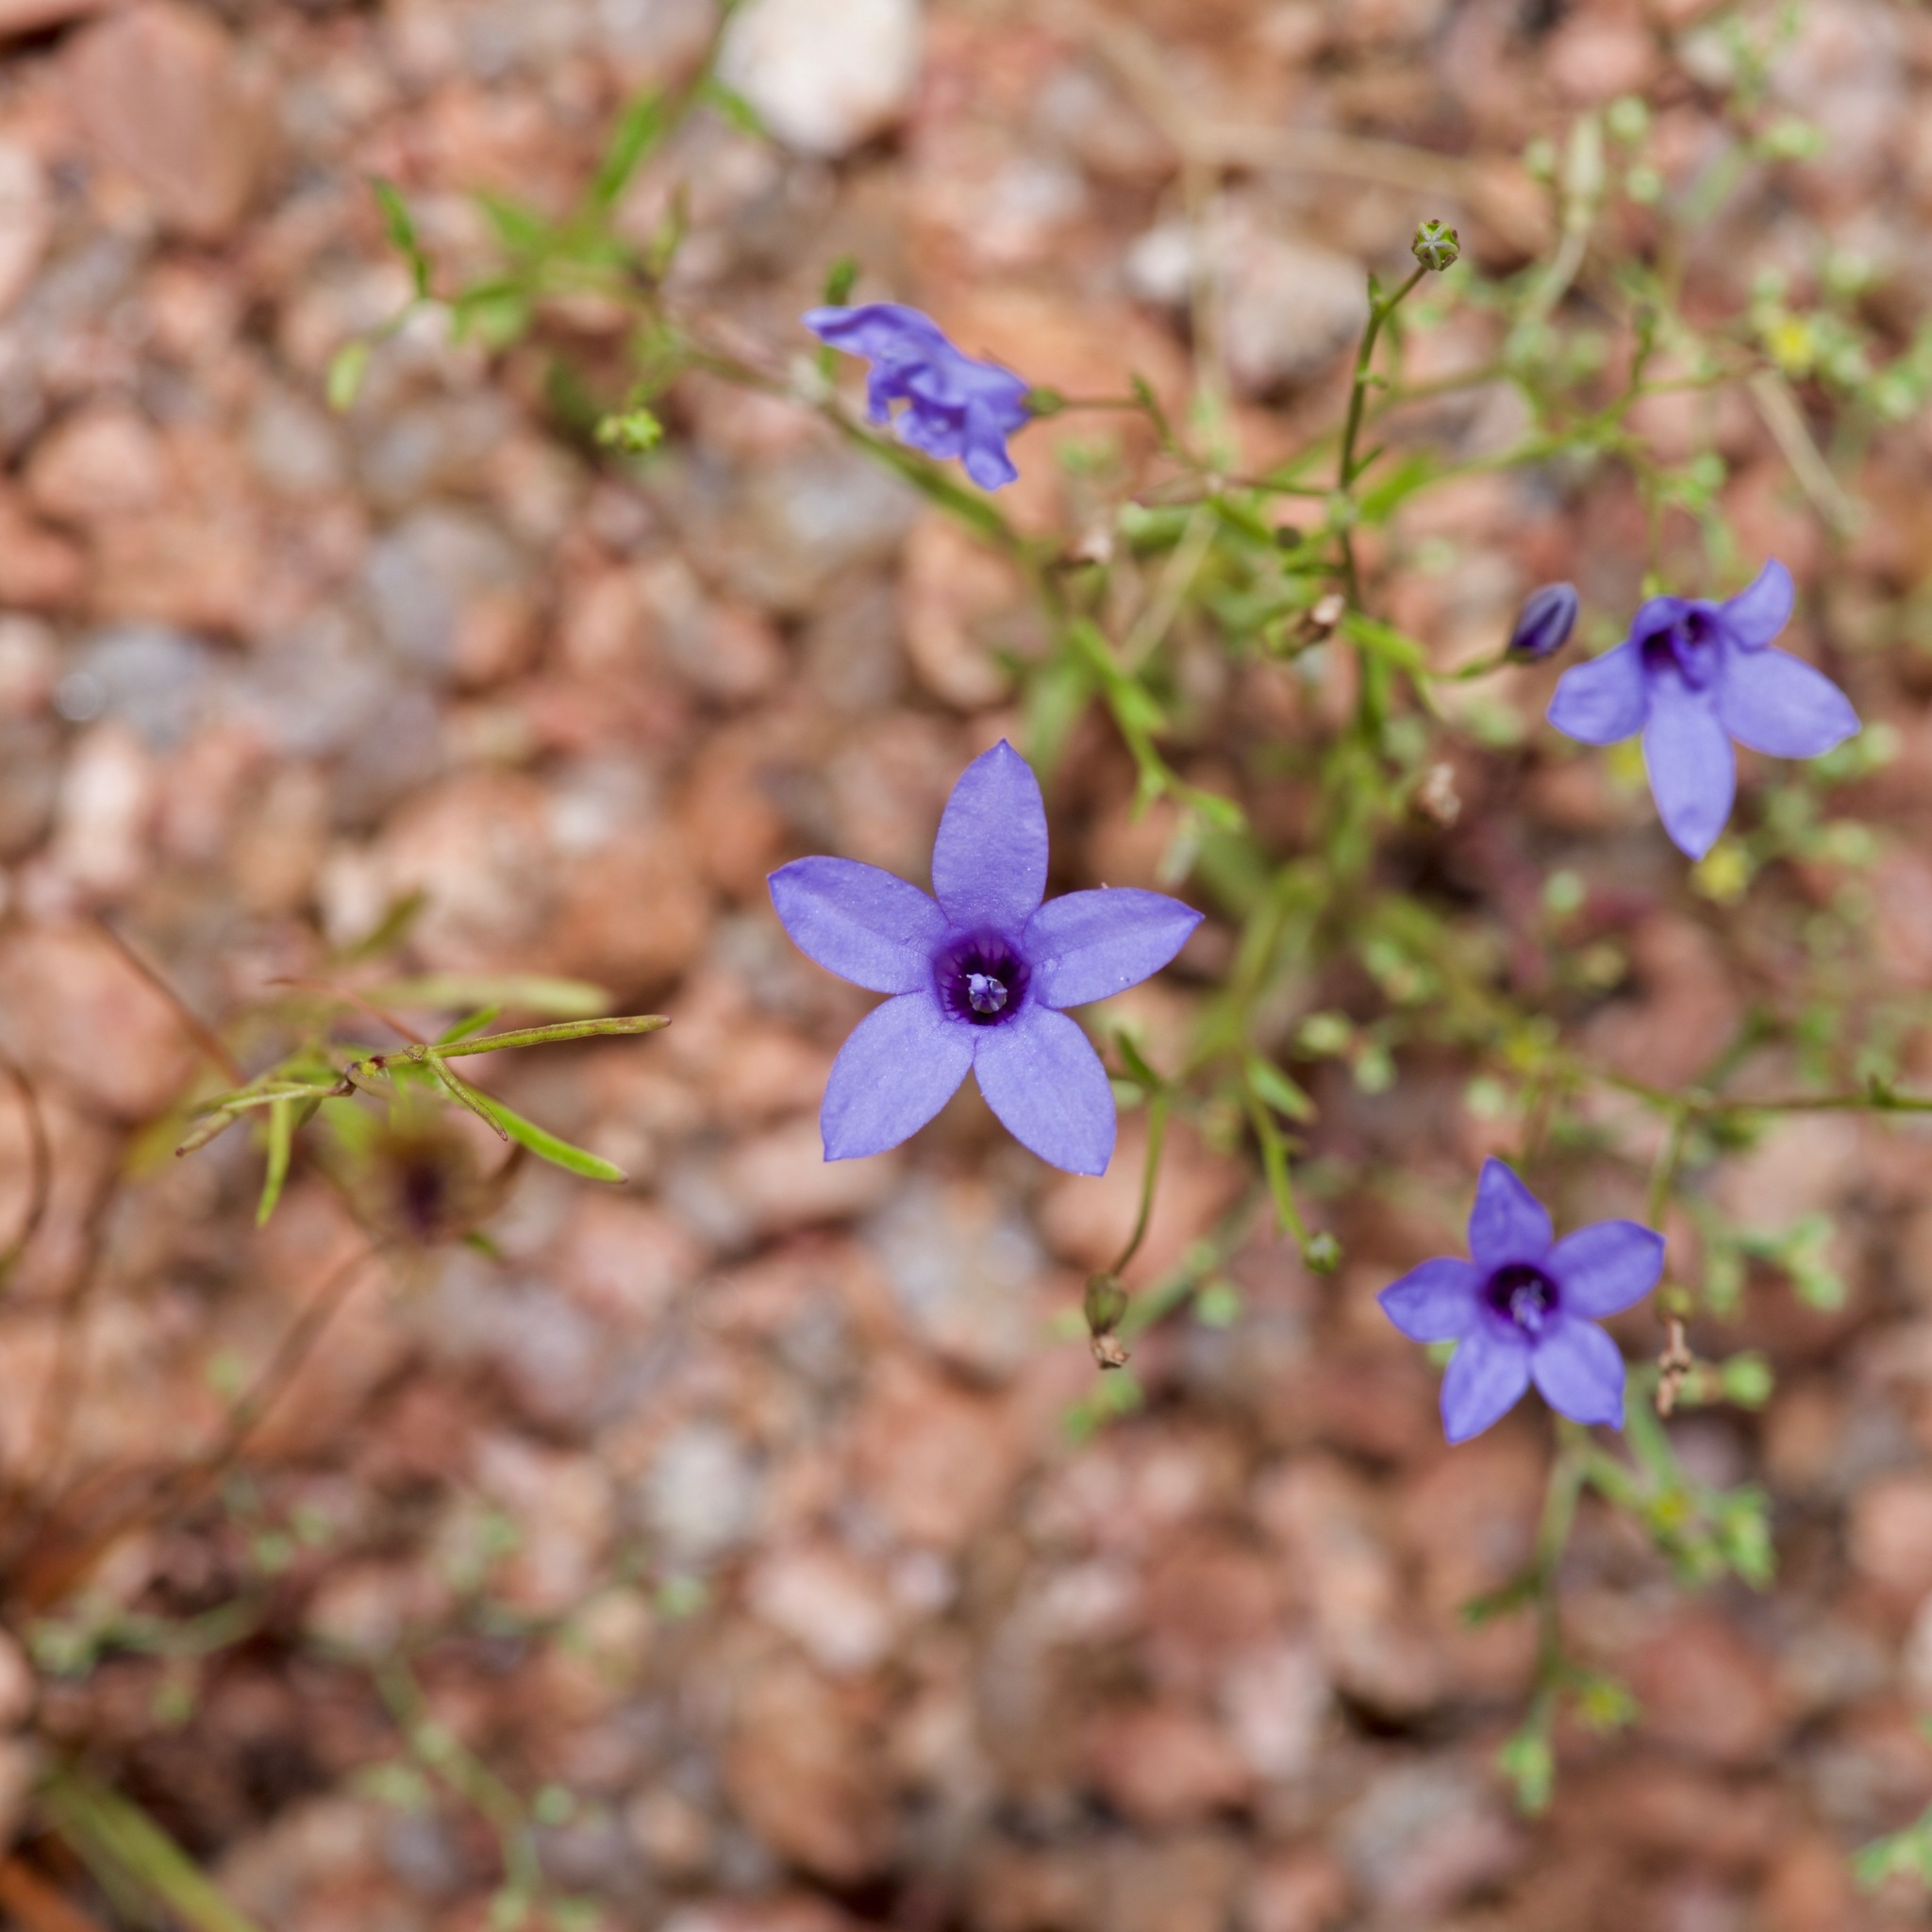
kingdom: Plantae
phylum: Tracheophyta
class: Magnoliopsida
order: Asterales
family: Campanulaceae
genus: Poolea
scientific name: Poolea reverchonii
